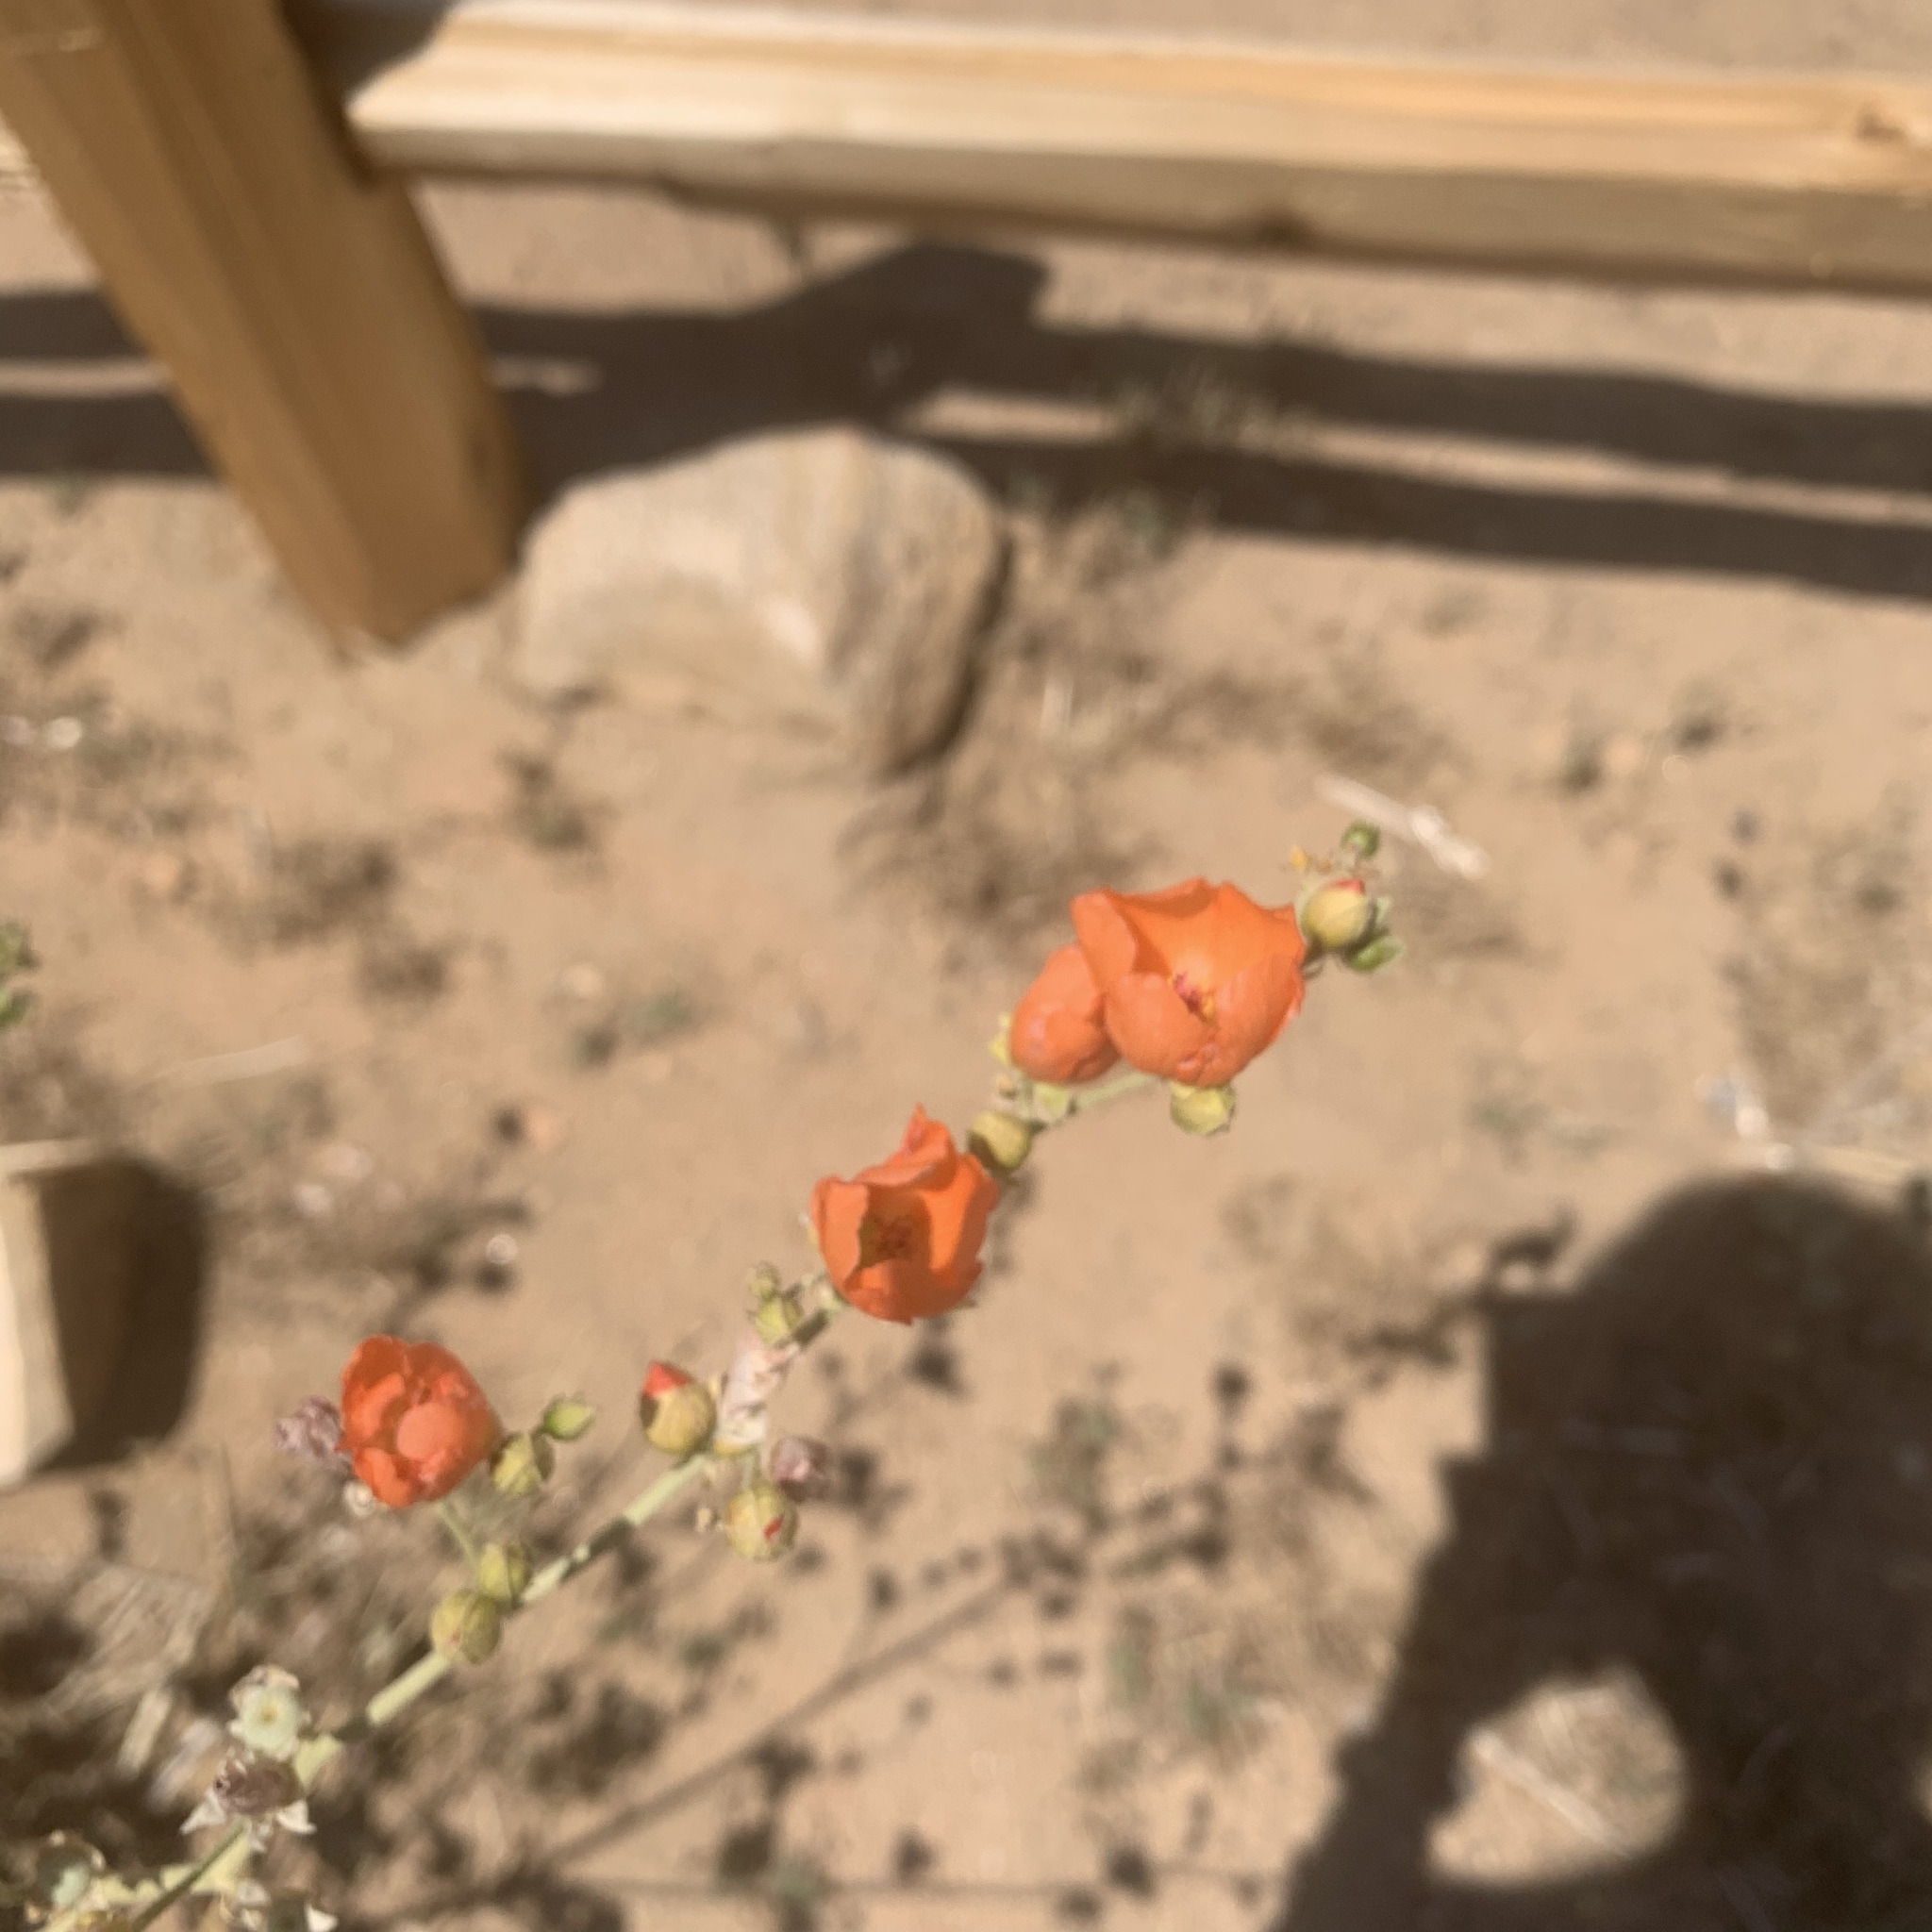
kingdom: Plantae
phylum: Tracheophyta
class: Magnoliopsida
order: Malvales
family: Malvaceae
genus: Sphaeralcea
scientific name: Sphaeralcea ambigua
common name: Apricot globe-mallow
